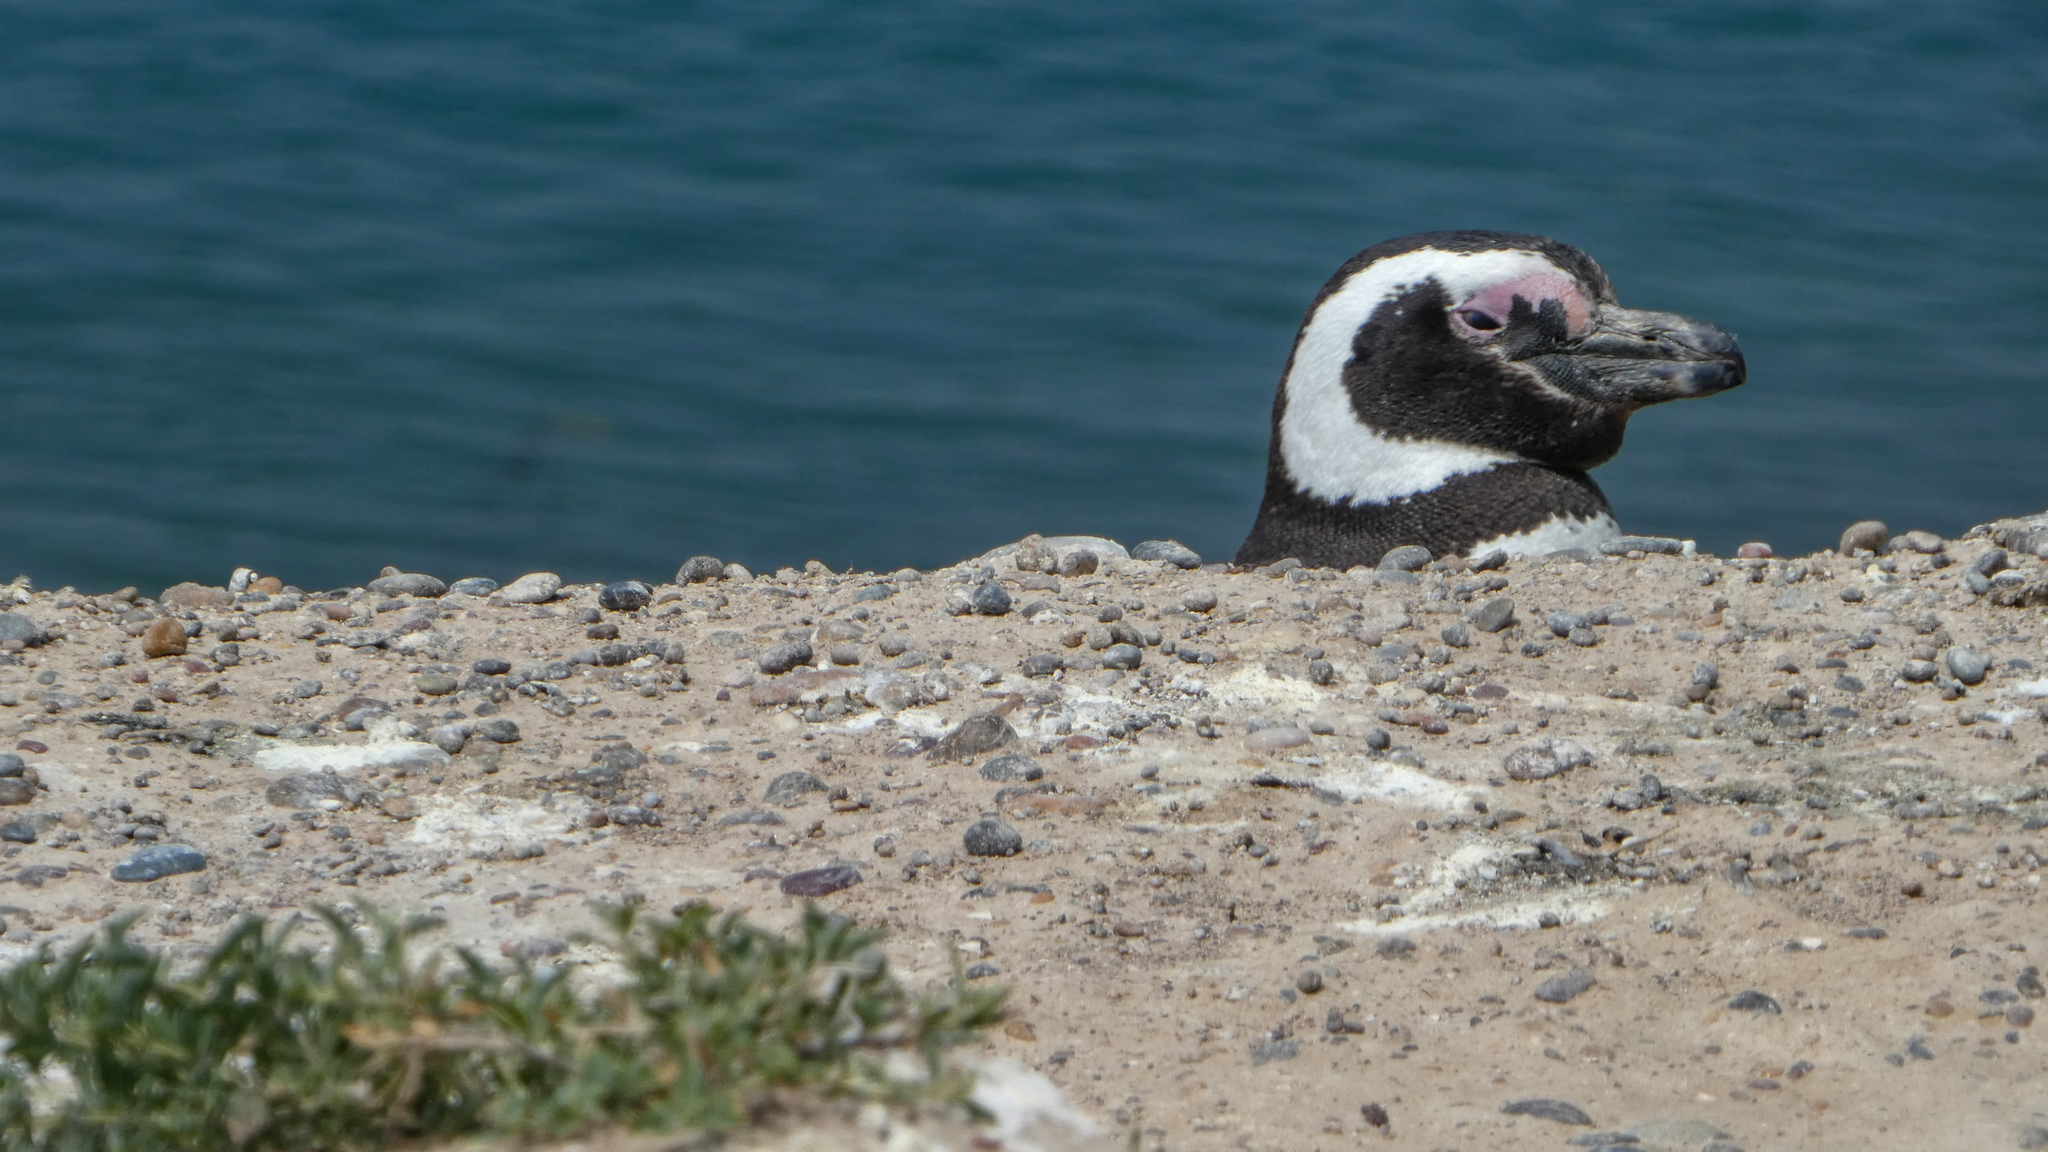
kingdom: Animalia
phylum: Chordata
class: Aves
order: Sphenisciformes
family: Spheniscidae
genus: Spheniscus
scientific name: Spheniscus magellanicus
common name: Magellanic penguin
